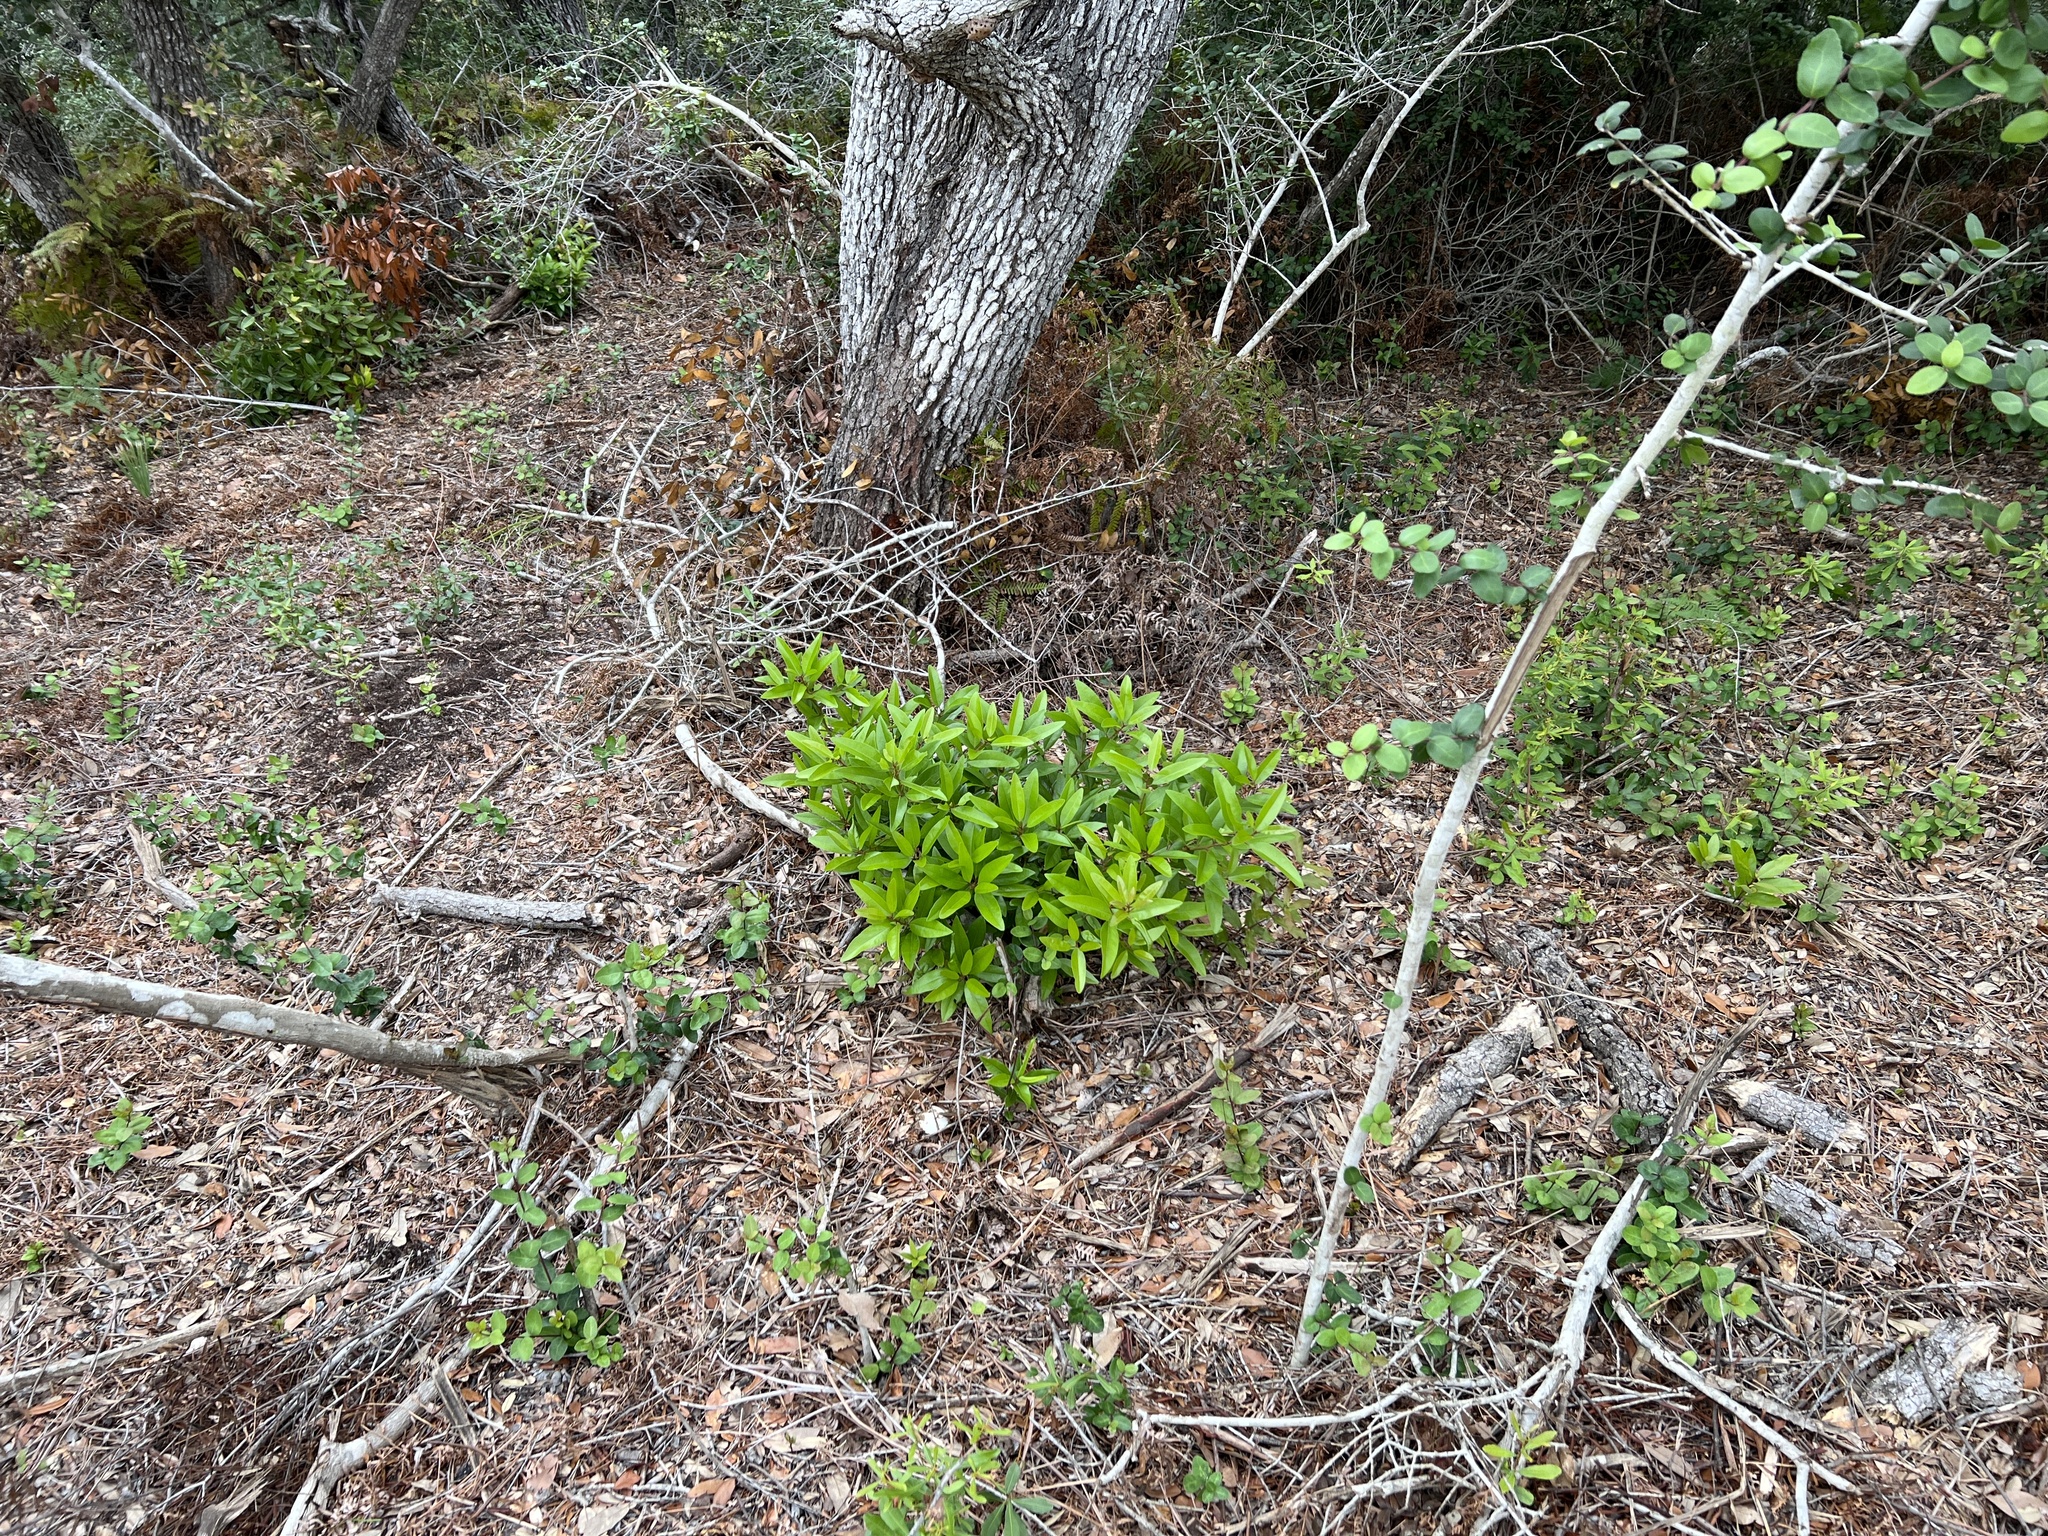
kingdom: Plantae
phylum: Tracheophyta
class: Magnoliopsida
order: Laurales
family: Lauraceae
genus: Persea
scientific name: Persea borbonia
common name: Redbay
